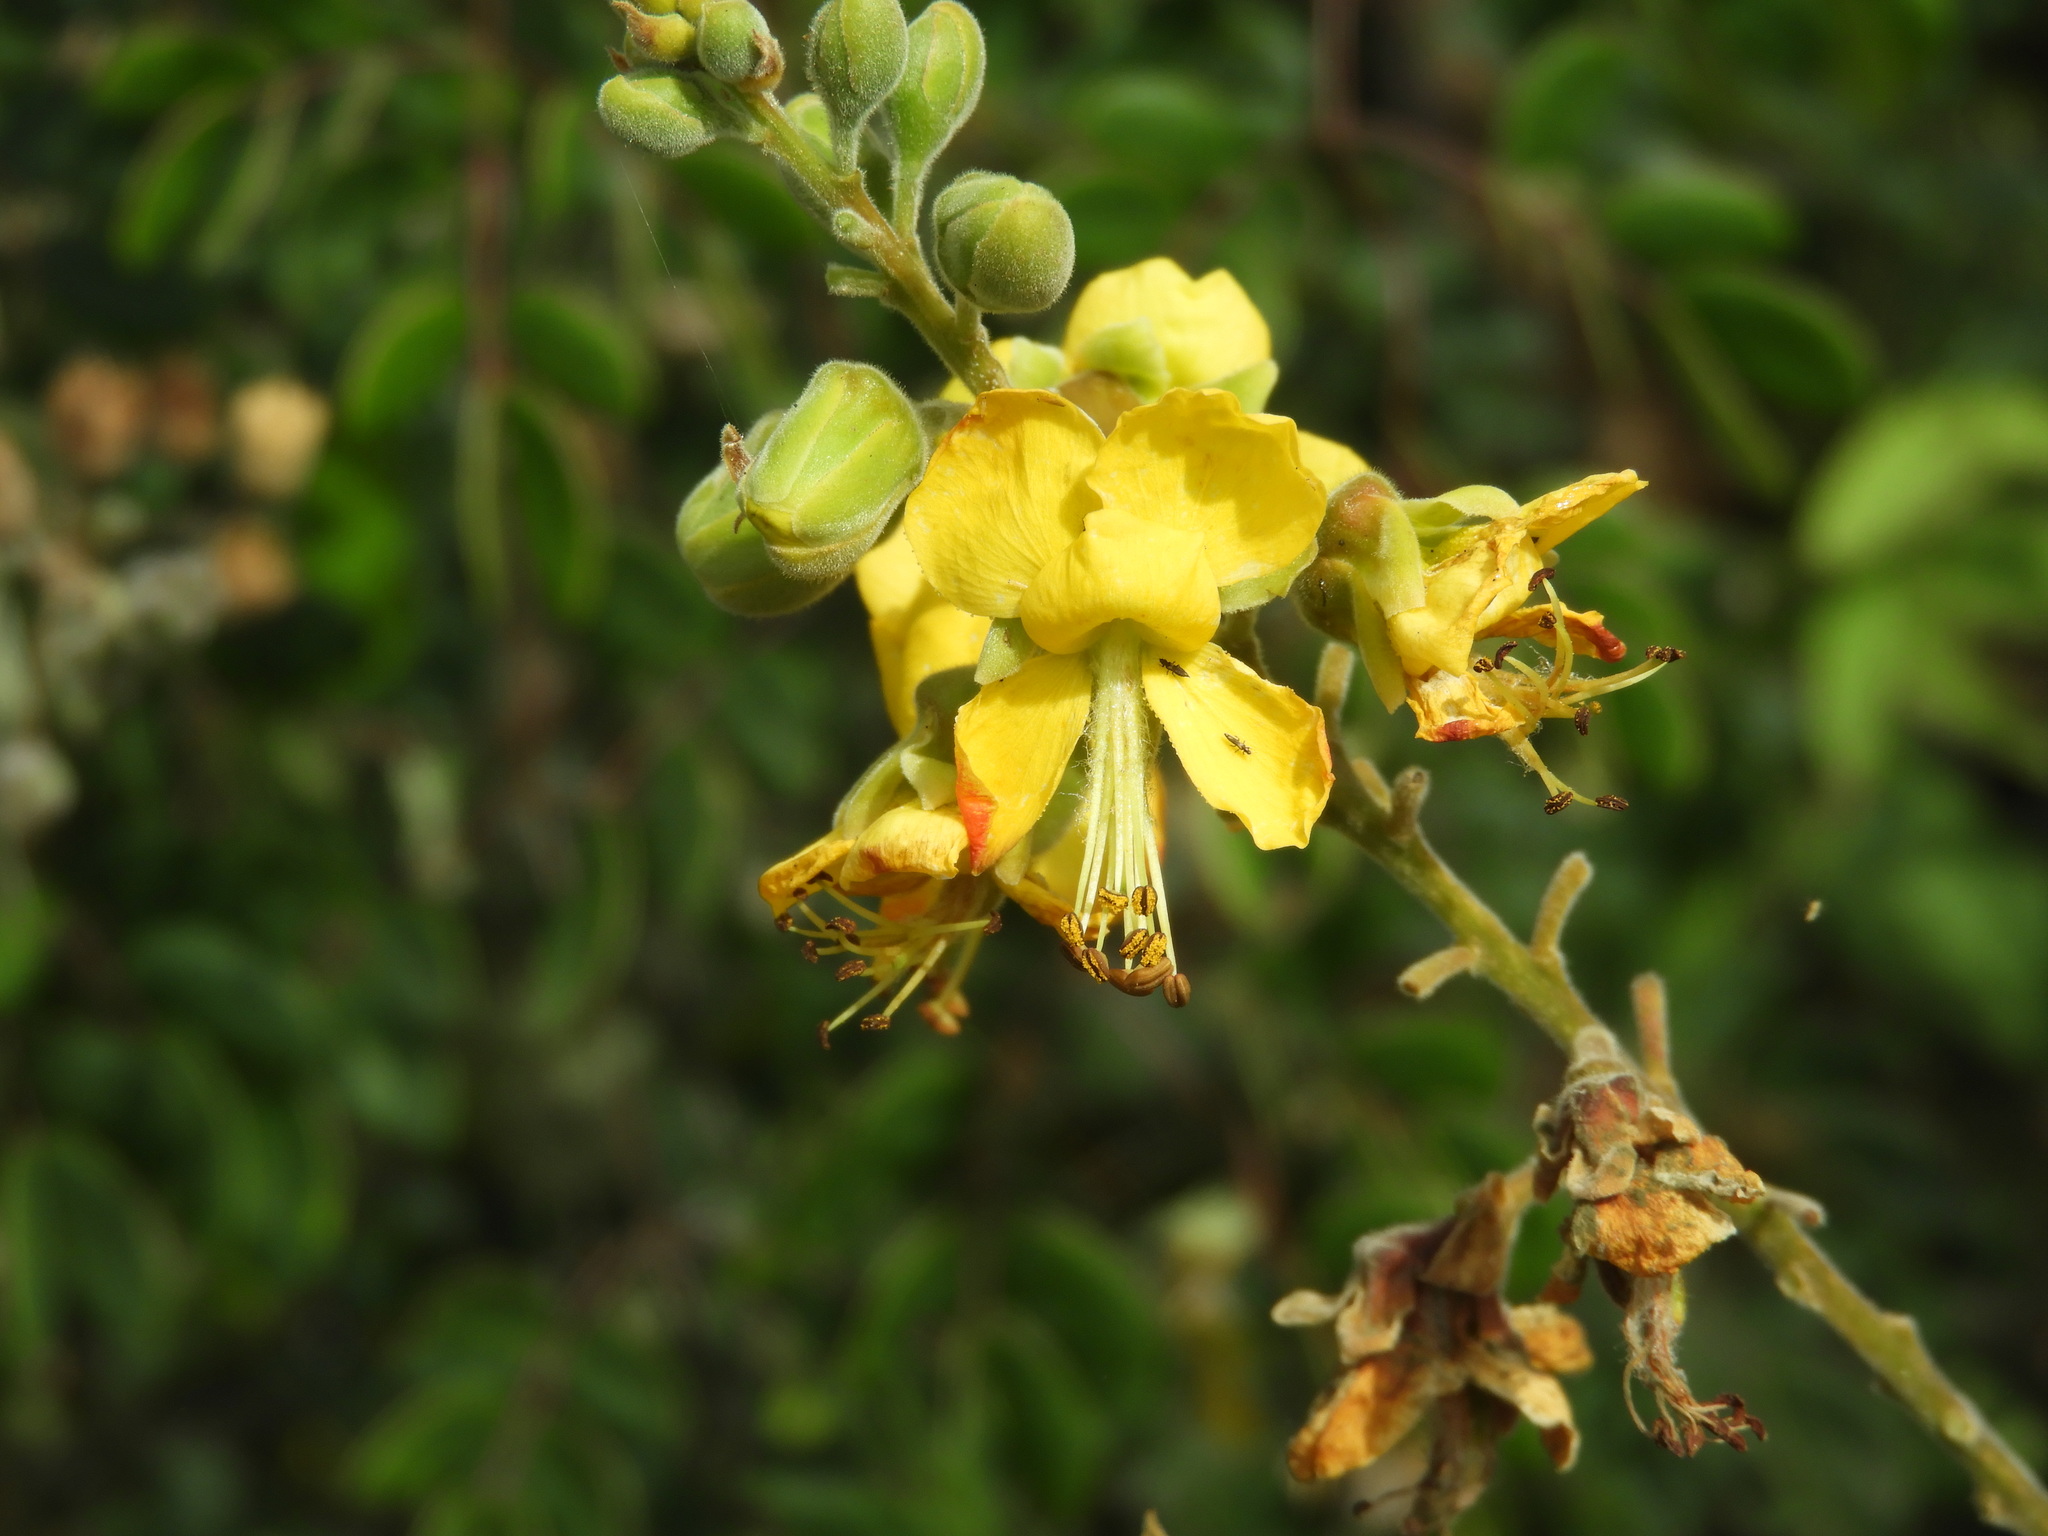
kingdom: Plantae
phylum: Tracheophyta
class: Magnoliopsida
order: Fabales
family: Fabaceae
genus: Erythrostemon
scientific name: Erythrostemon mexicanus
